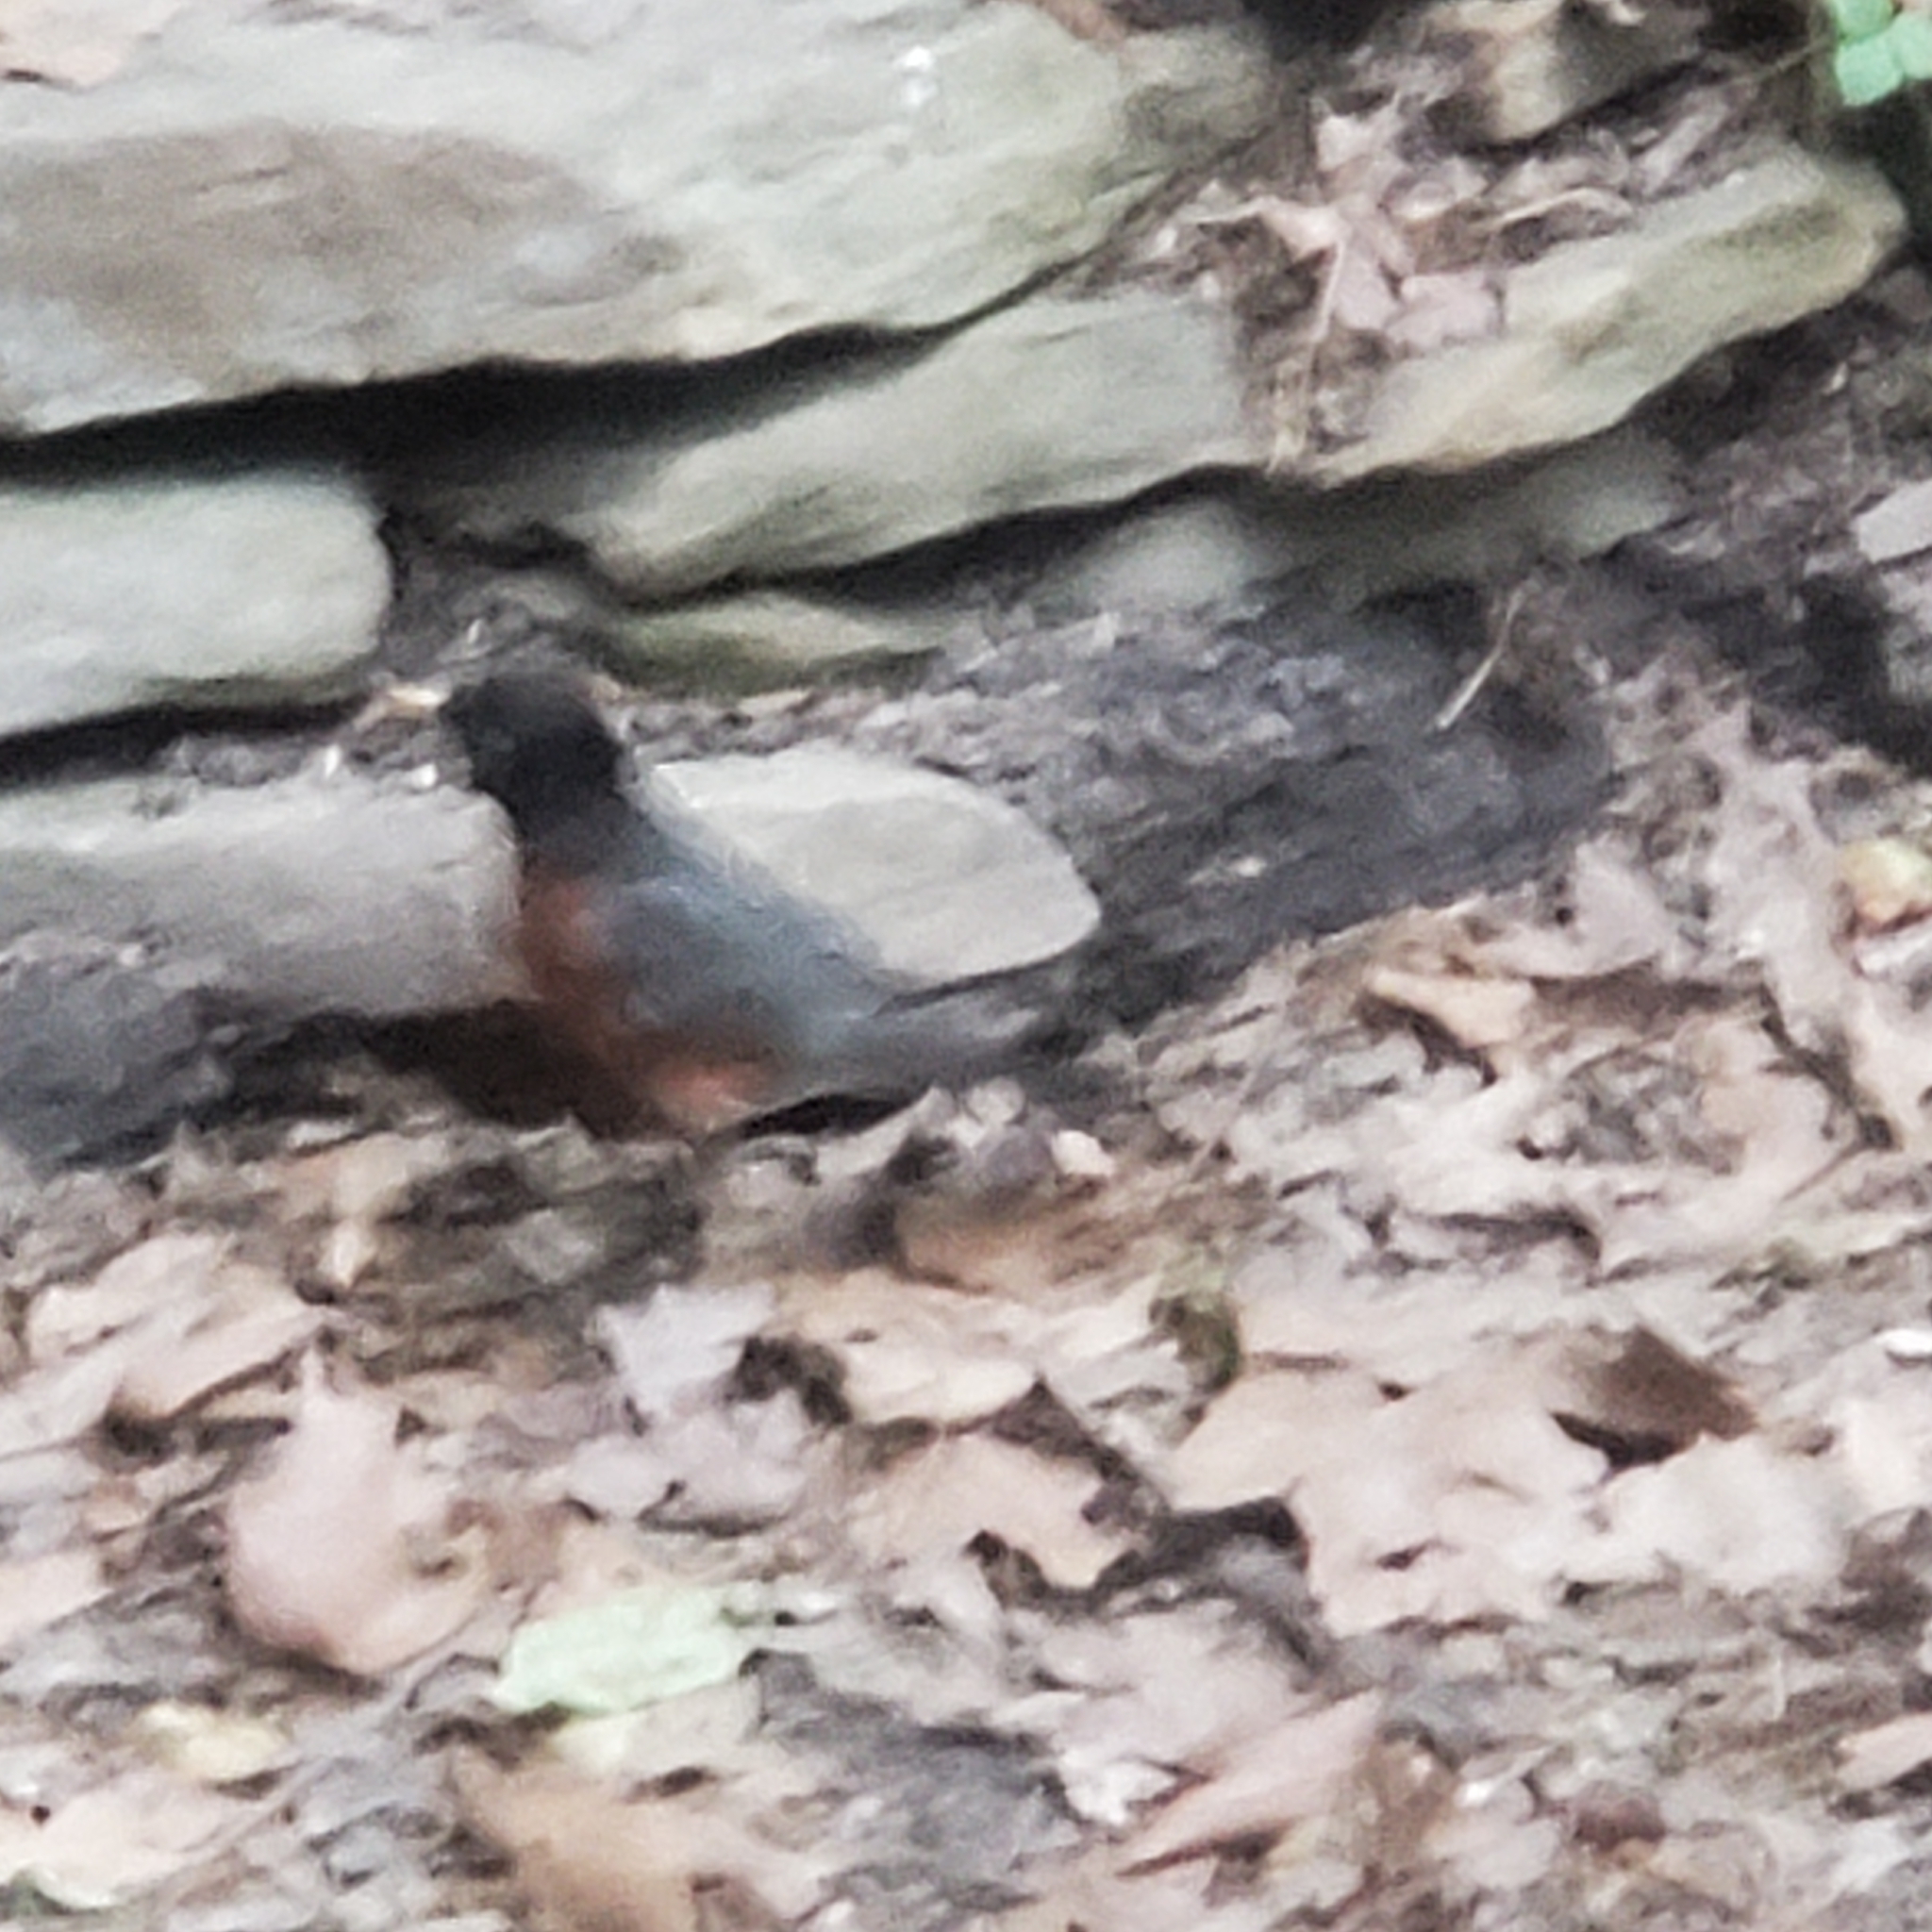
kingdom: Animalia
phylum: Chordata
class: Aves
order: Passeriformes
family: Turdidae
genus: Turdus
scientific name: Turdus migratorius
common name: American robin
